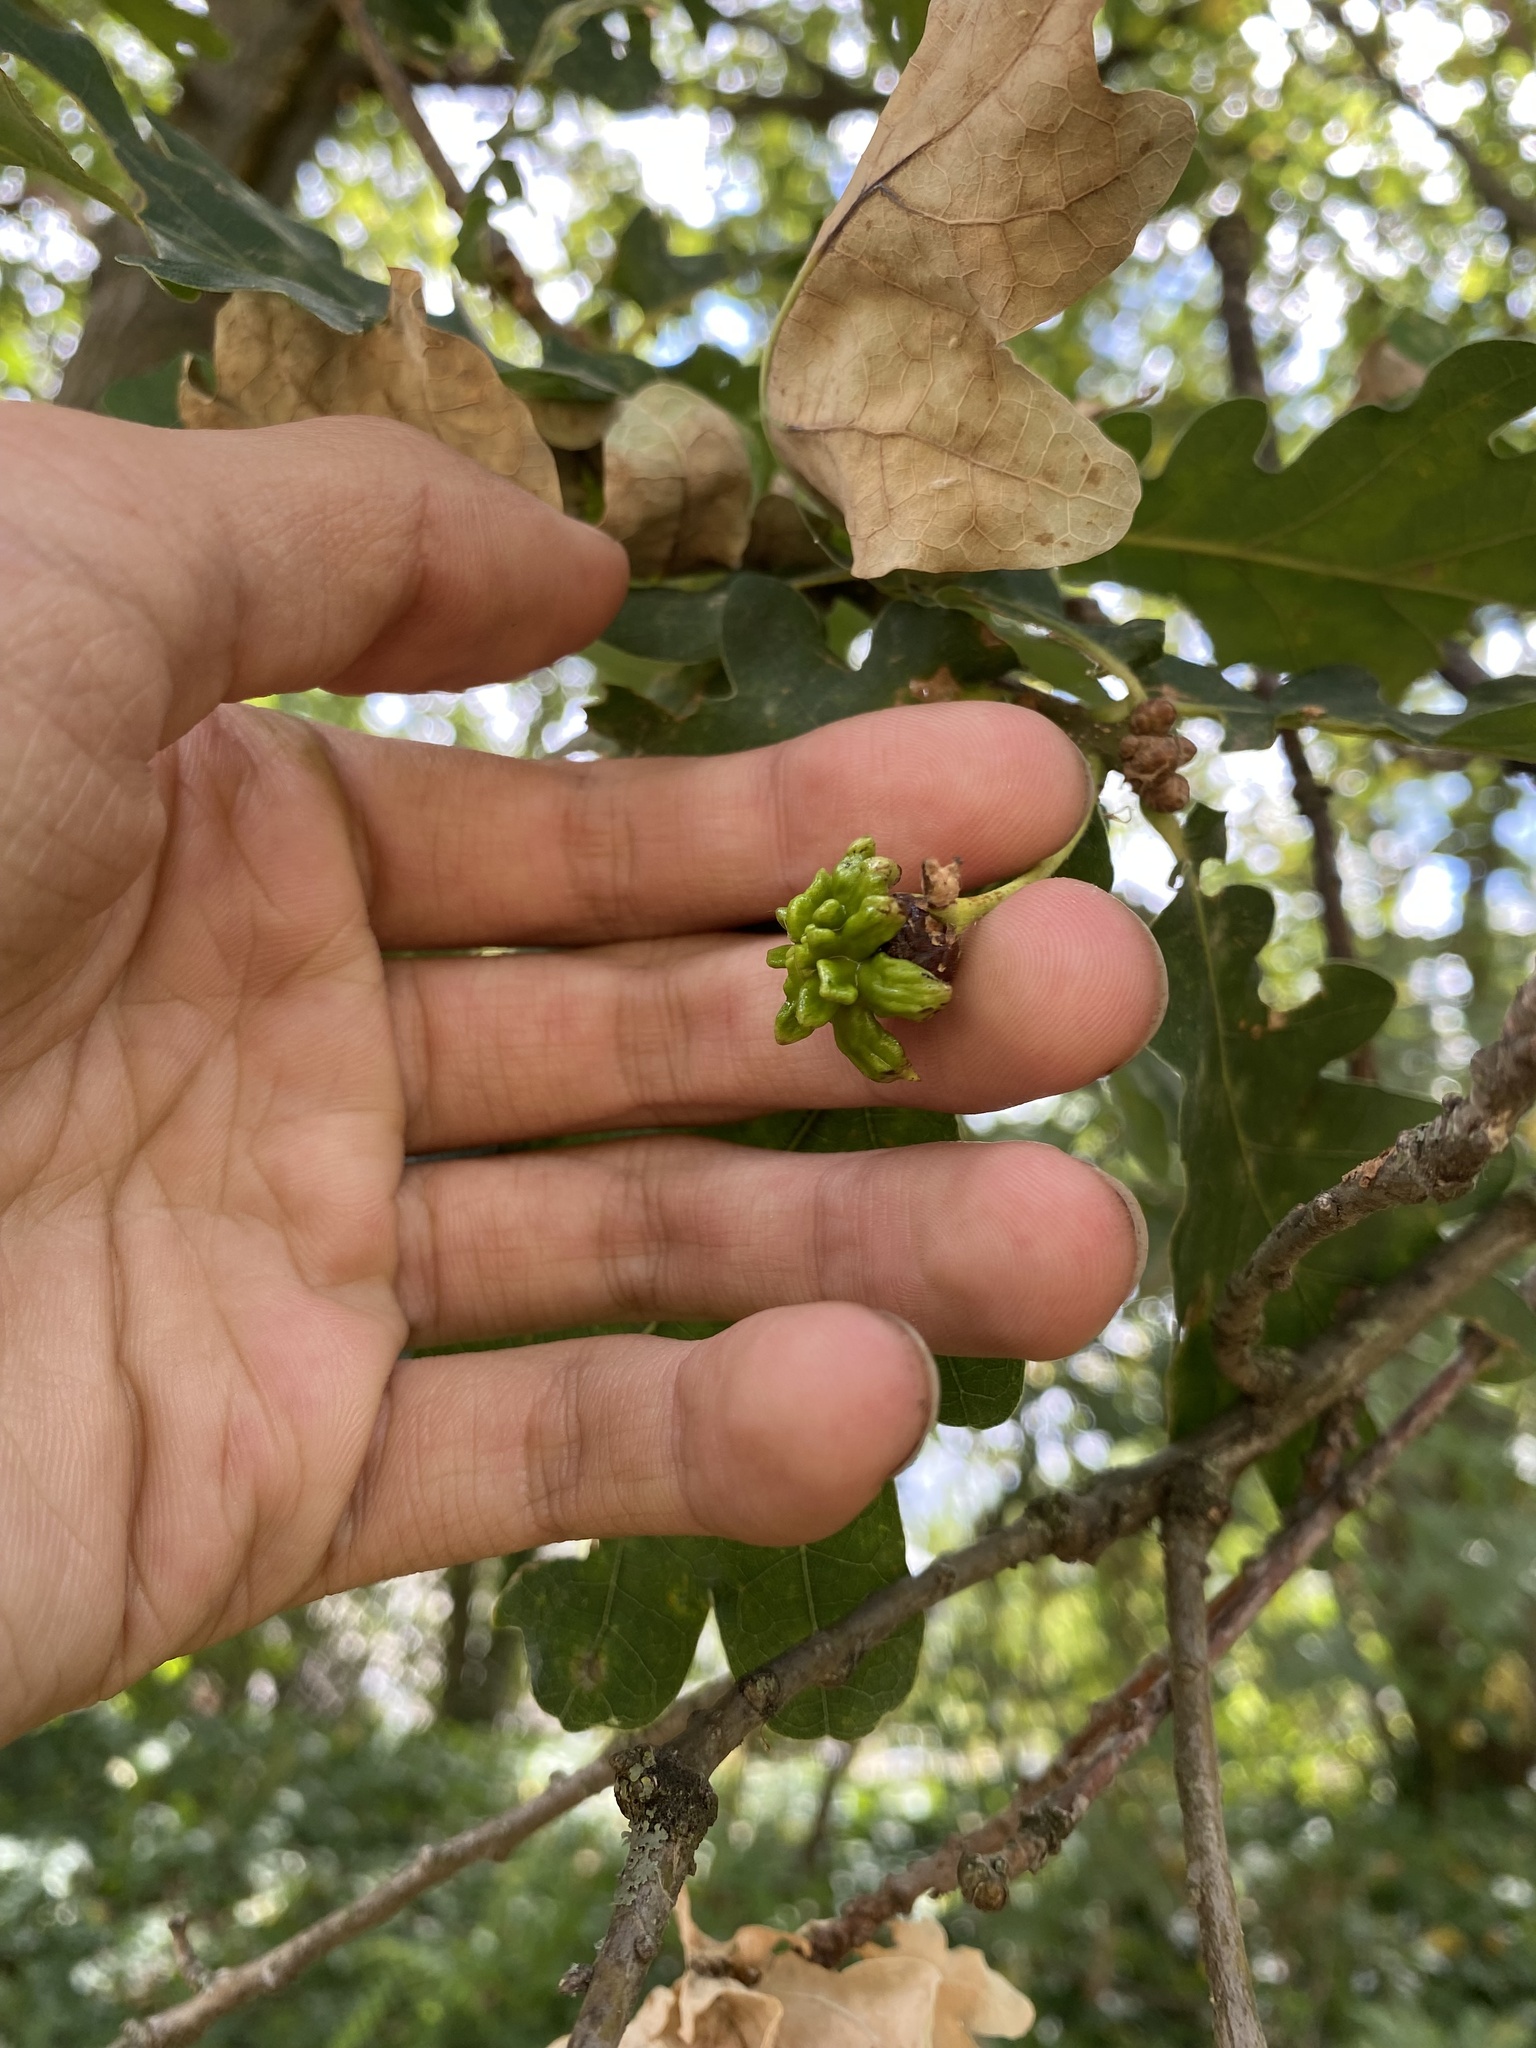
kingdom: Animalia
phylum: Arthropoda
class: Insecta
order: Hymenoptera
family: Cynipidae
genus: Andricus
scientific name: Andricus quercuscalicis
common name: Knopper gall
